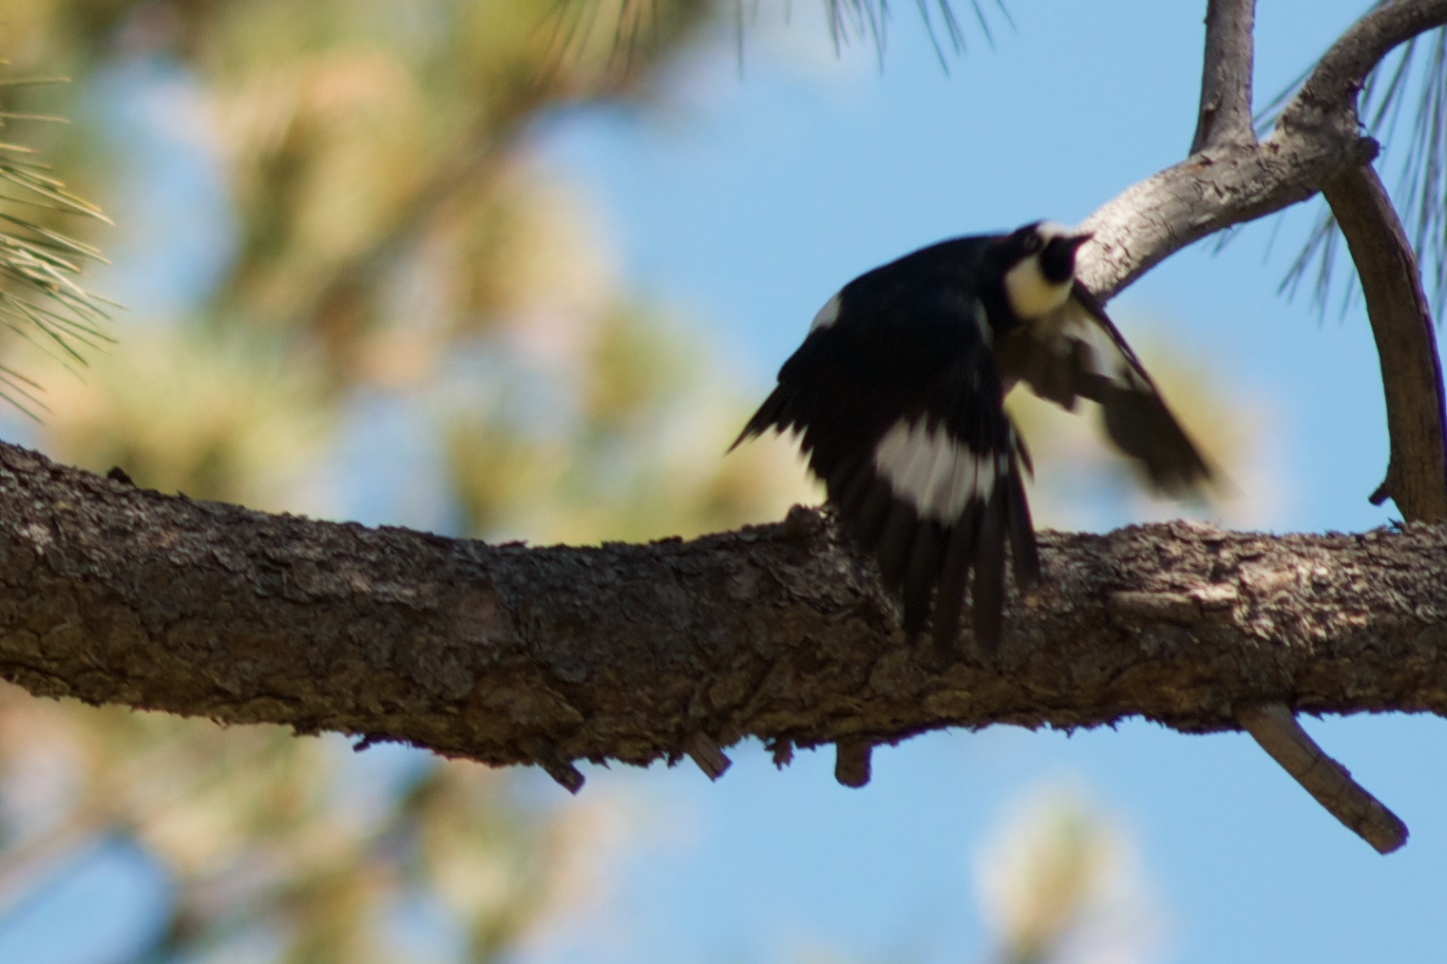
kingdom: Animalia
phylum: Chordata
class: Aves
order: Piciformes
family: Picidae
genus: Melanerpes
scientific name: Melanerpes formicivorus
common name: Acorn woodpecker
